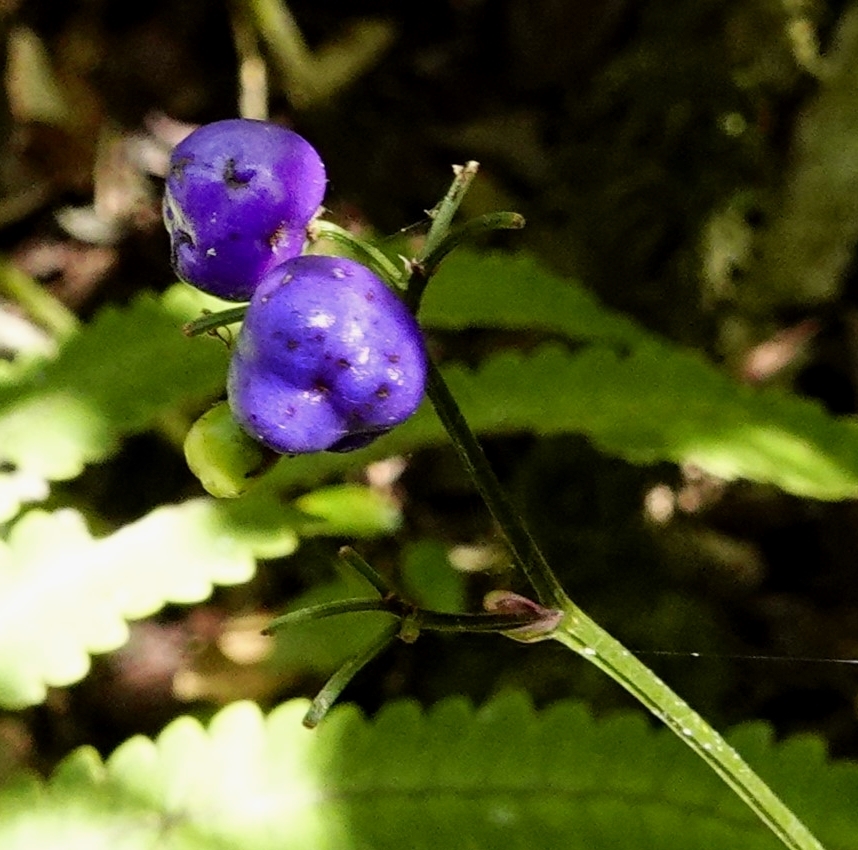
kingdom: Plantae
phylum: Tracheophyta
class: Liliopsida
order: Asparagales
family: Asphodelaceae
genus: Dianella
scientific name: Dianella ensifolia
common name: New zealand lilyplant
